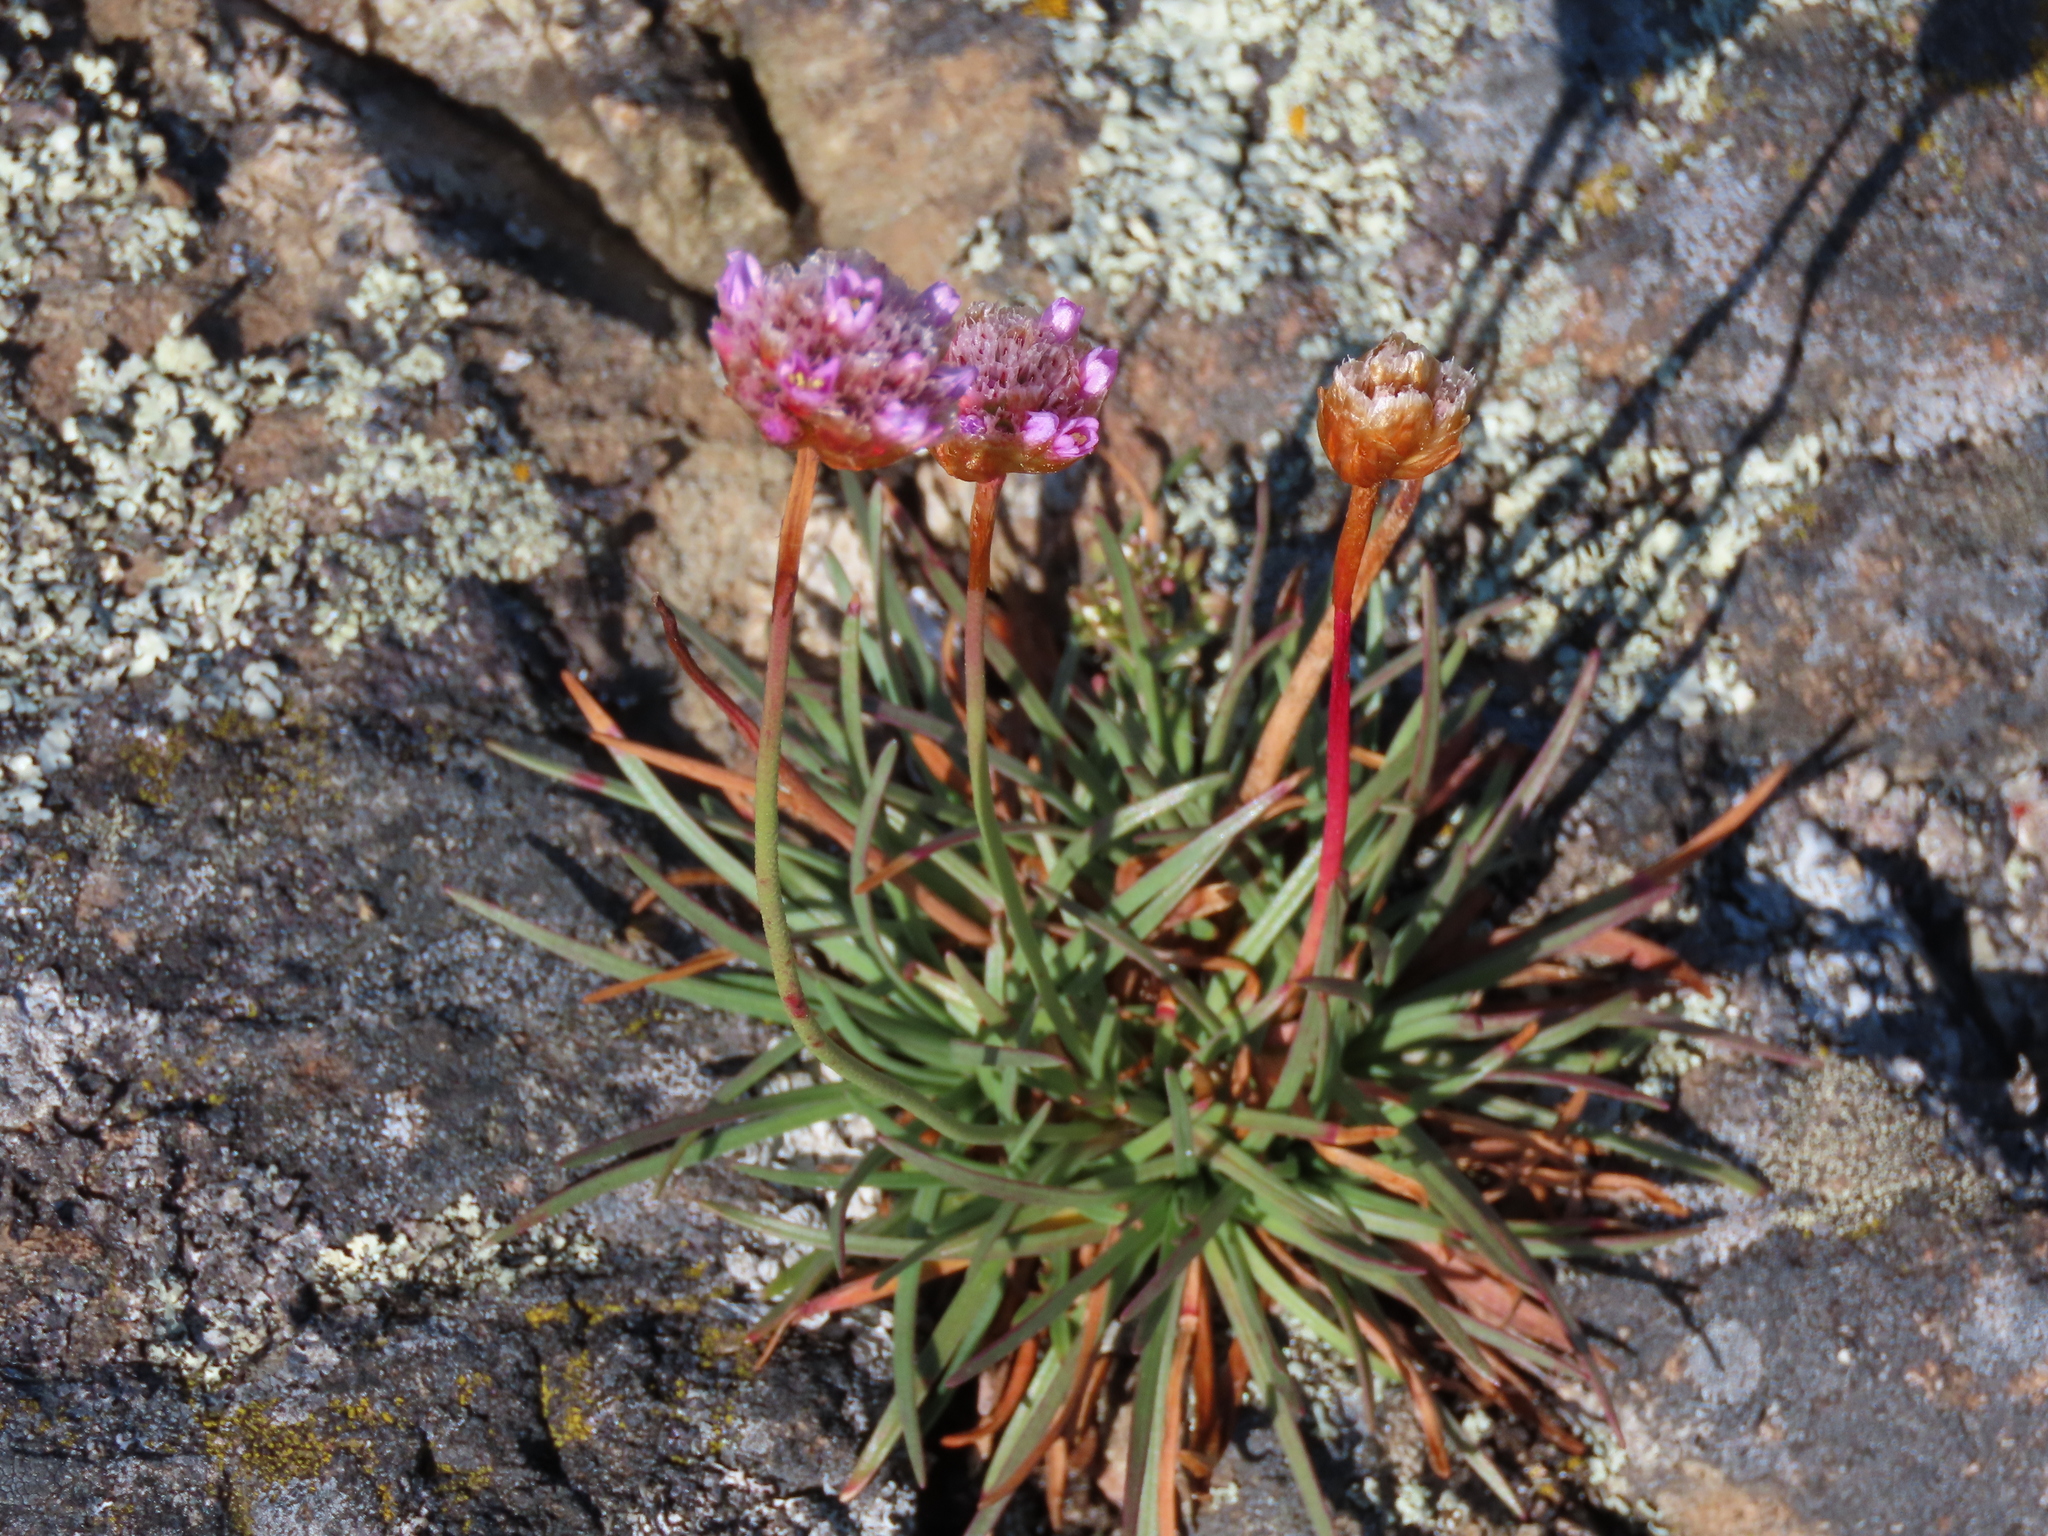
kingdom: Plantae
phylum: Tracheophyta
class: Magnoliopsida
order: Caryophyllales
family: Plumbaginaceae
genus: Armeria
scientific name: Armeria maritima
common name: Thrift
